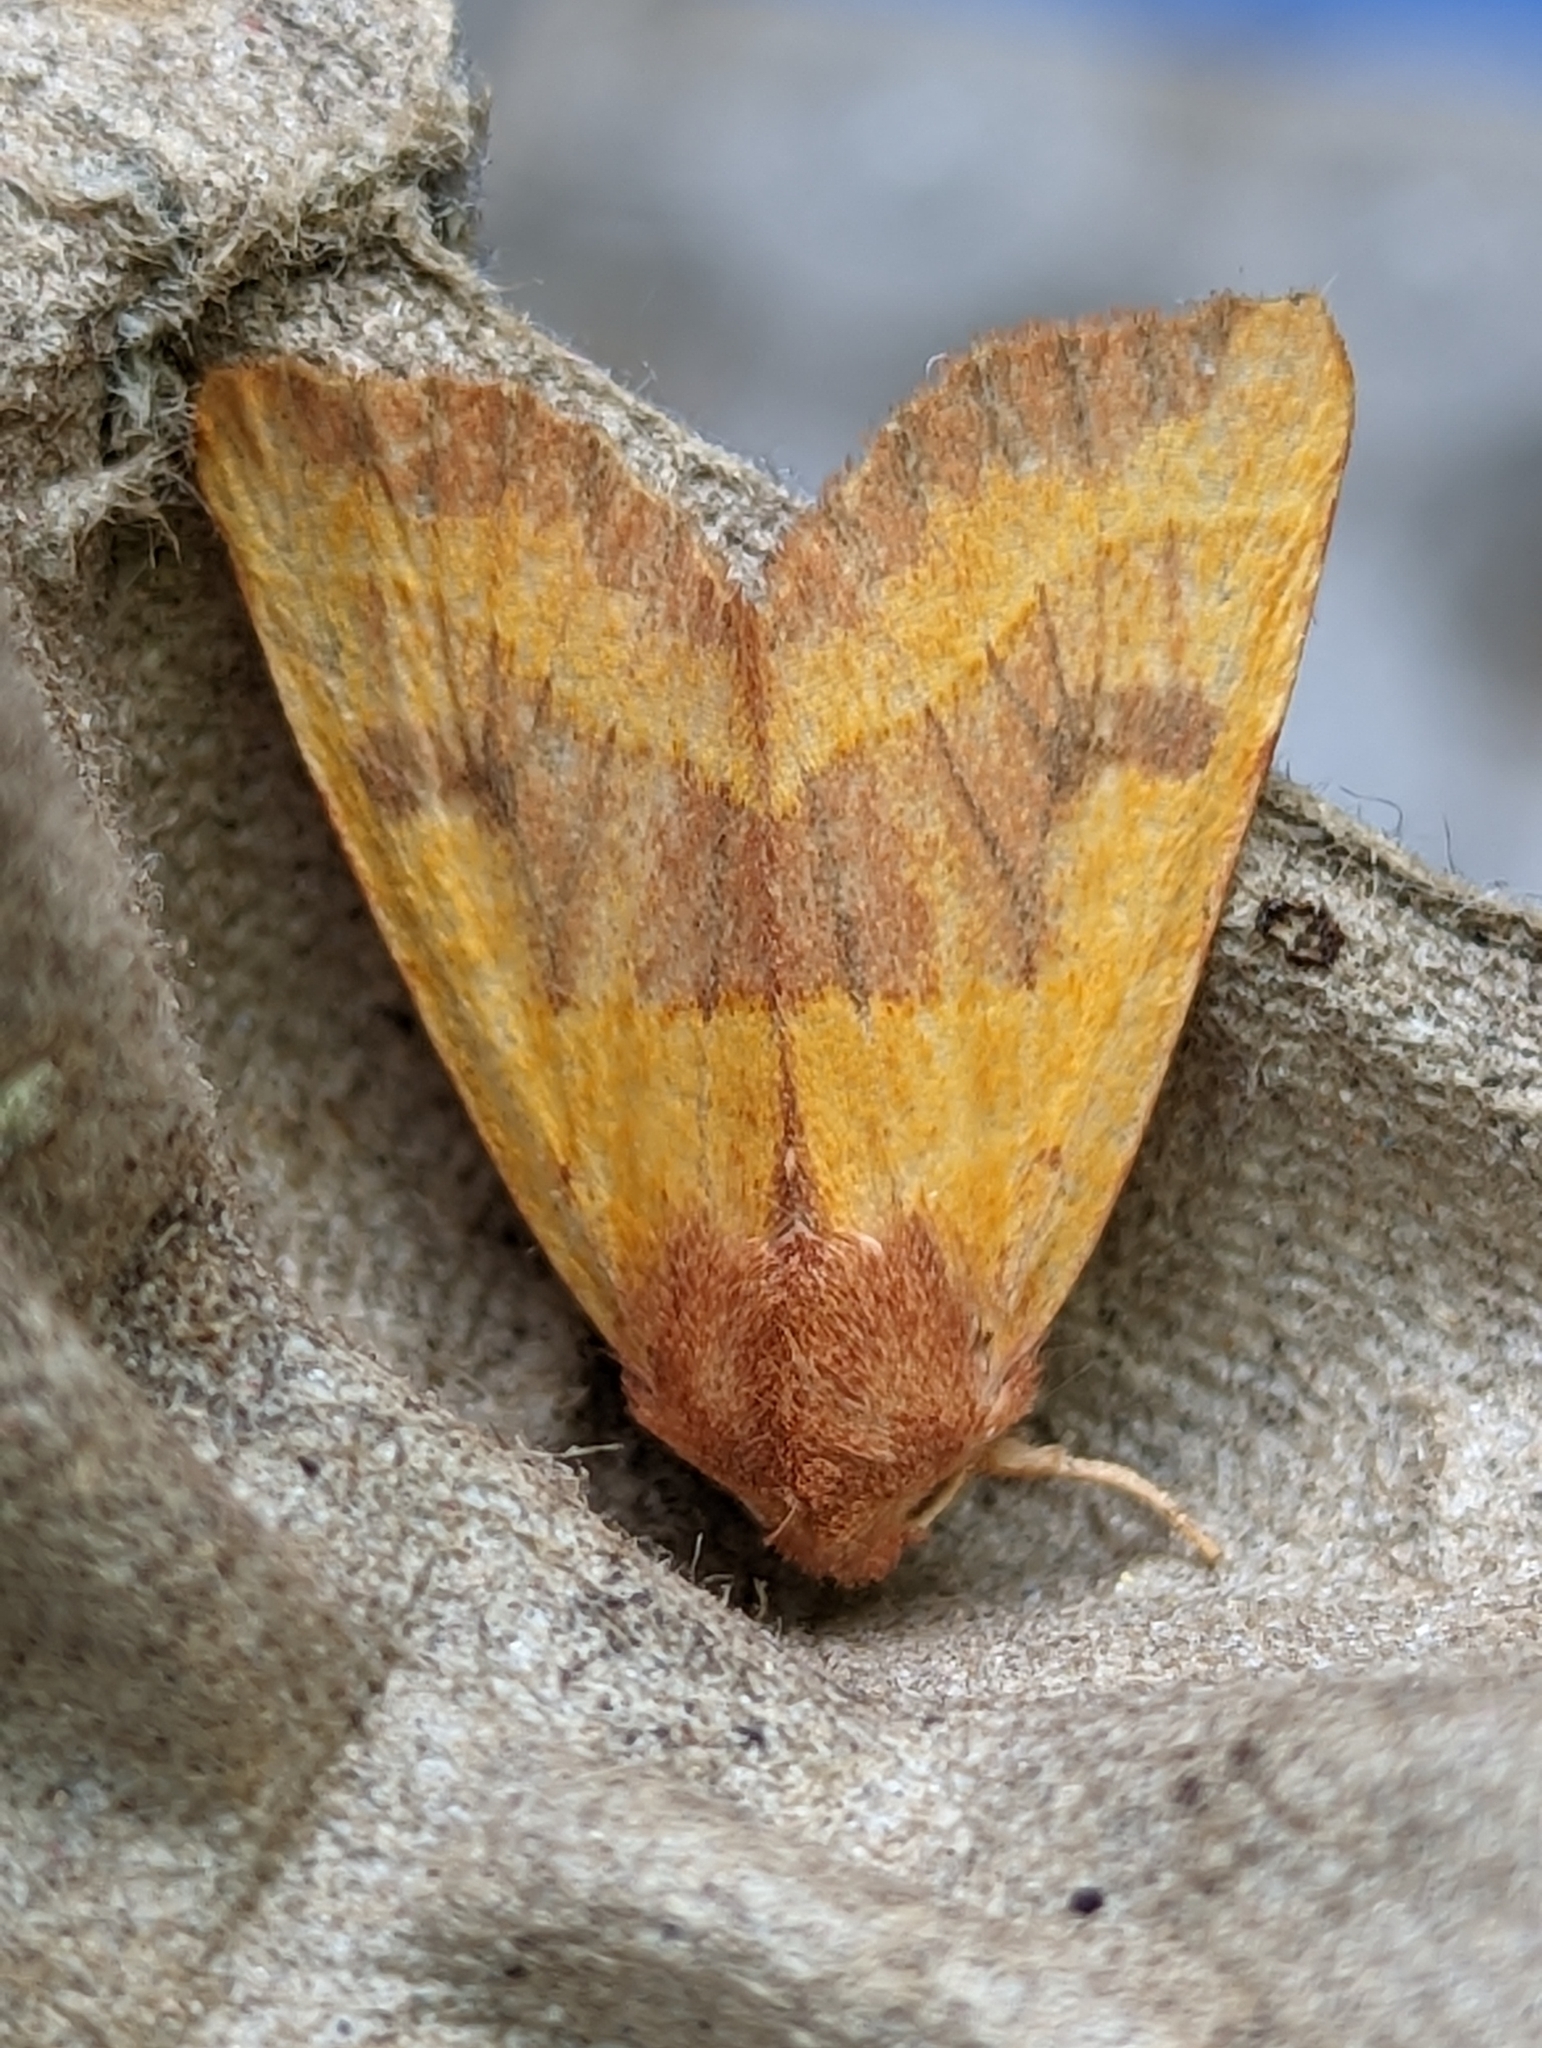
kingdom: Animalia
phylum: Arthropoda
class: Insecta
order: Lepidoptera
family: Noctuidae
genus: Atethmia
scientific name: Atethmia centrago
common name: Centre-barred sallow
